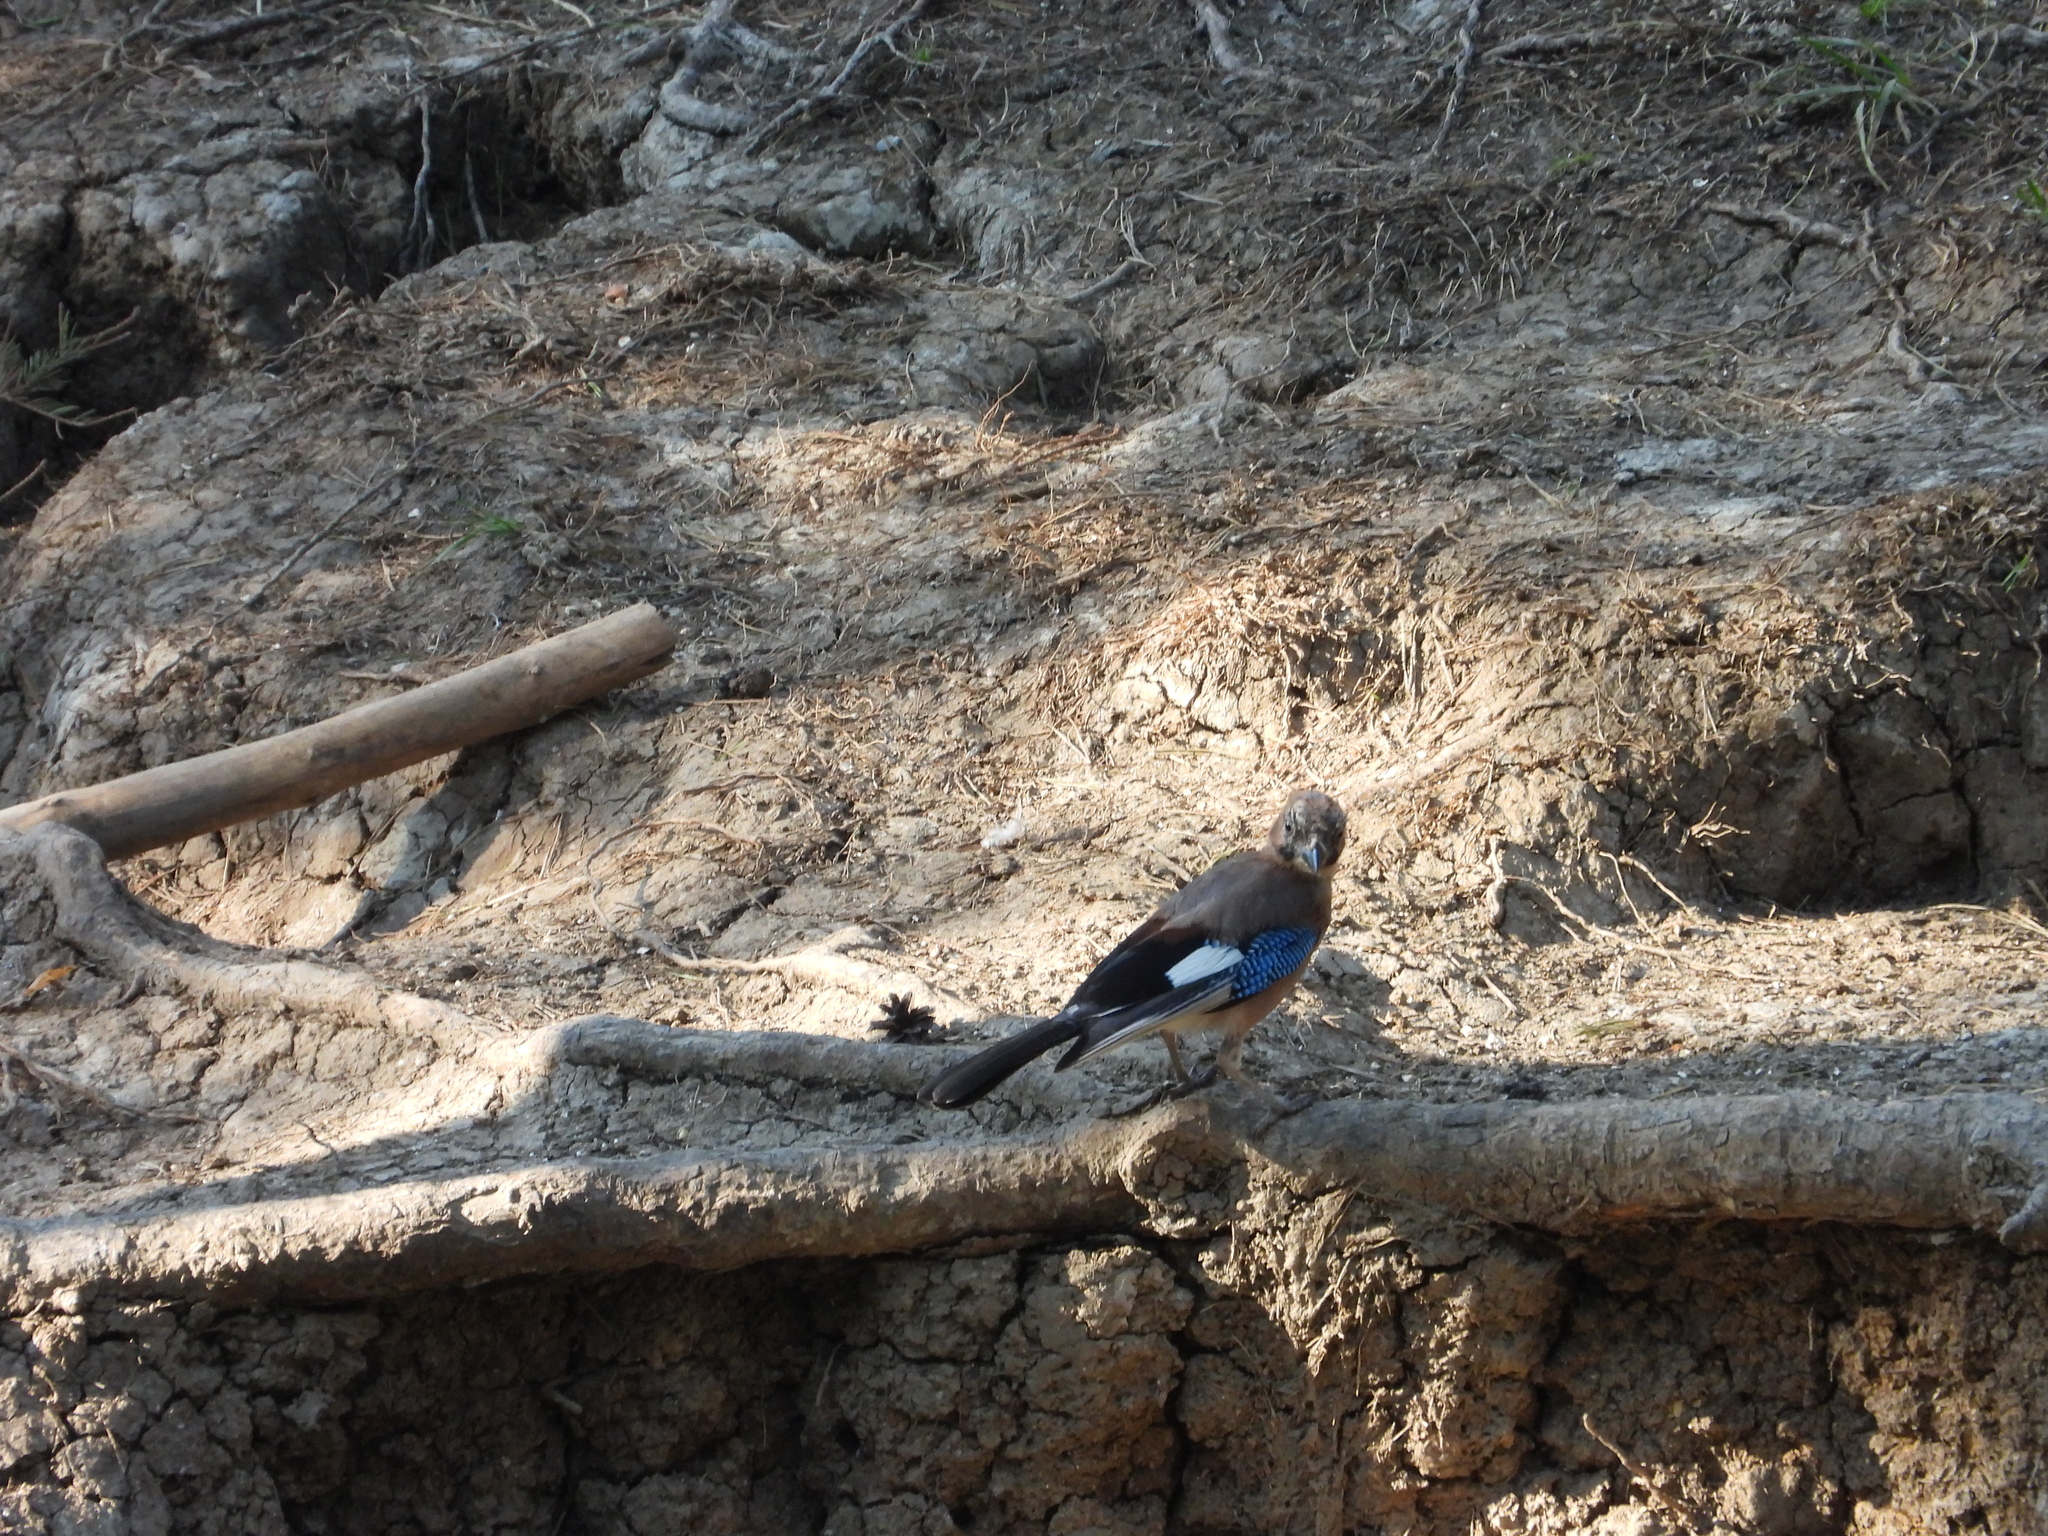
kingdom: Animalia
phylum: Chordata
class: Aves
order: Passeriformes
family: Corvidae
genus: Garrulus
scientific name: Garrulus glandarius
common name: Eurasian jay
